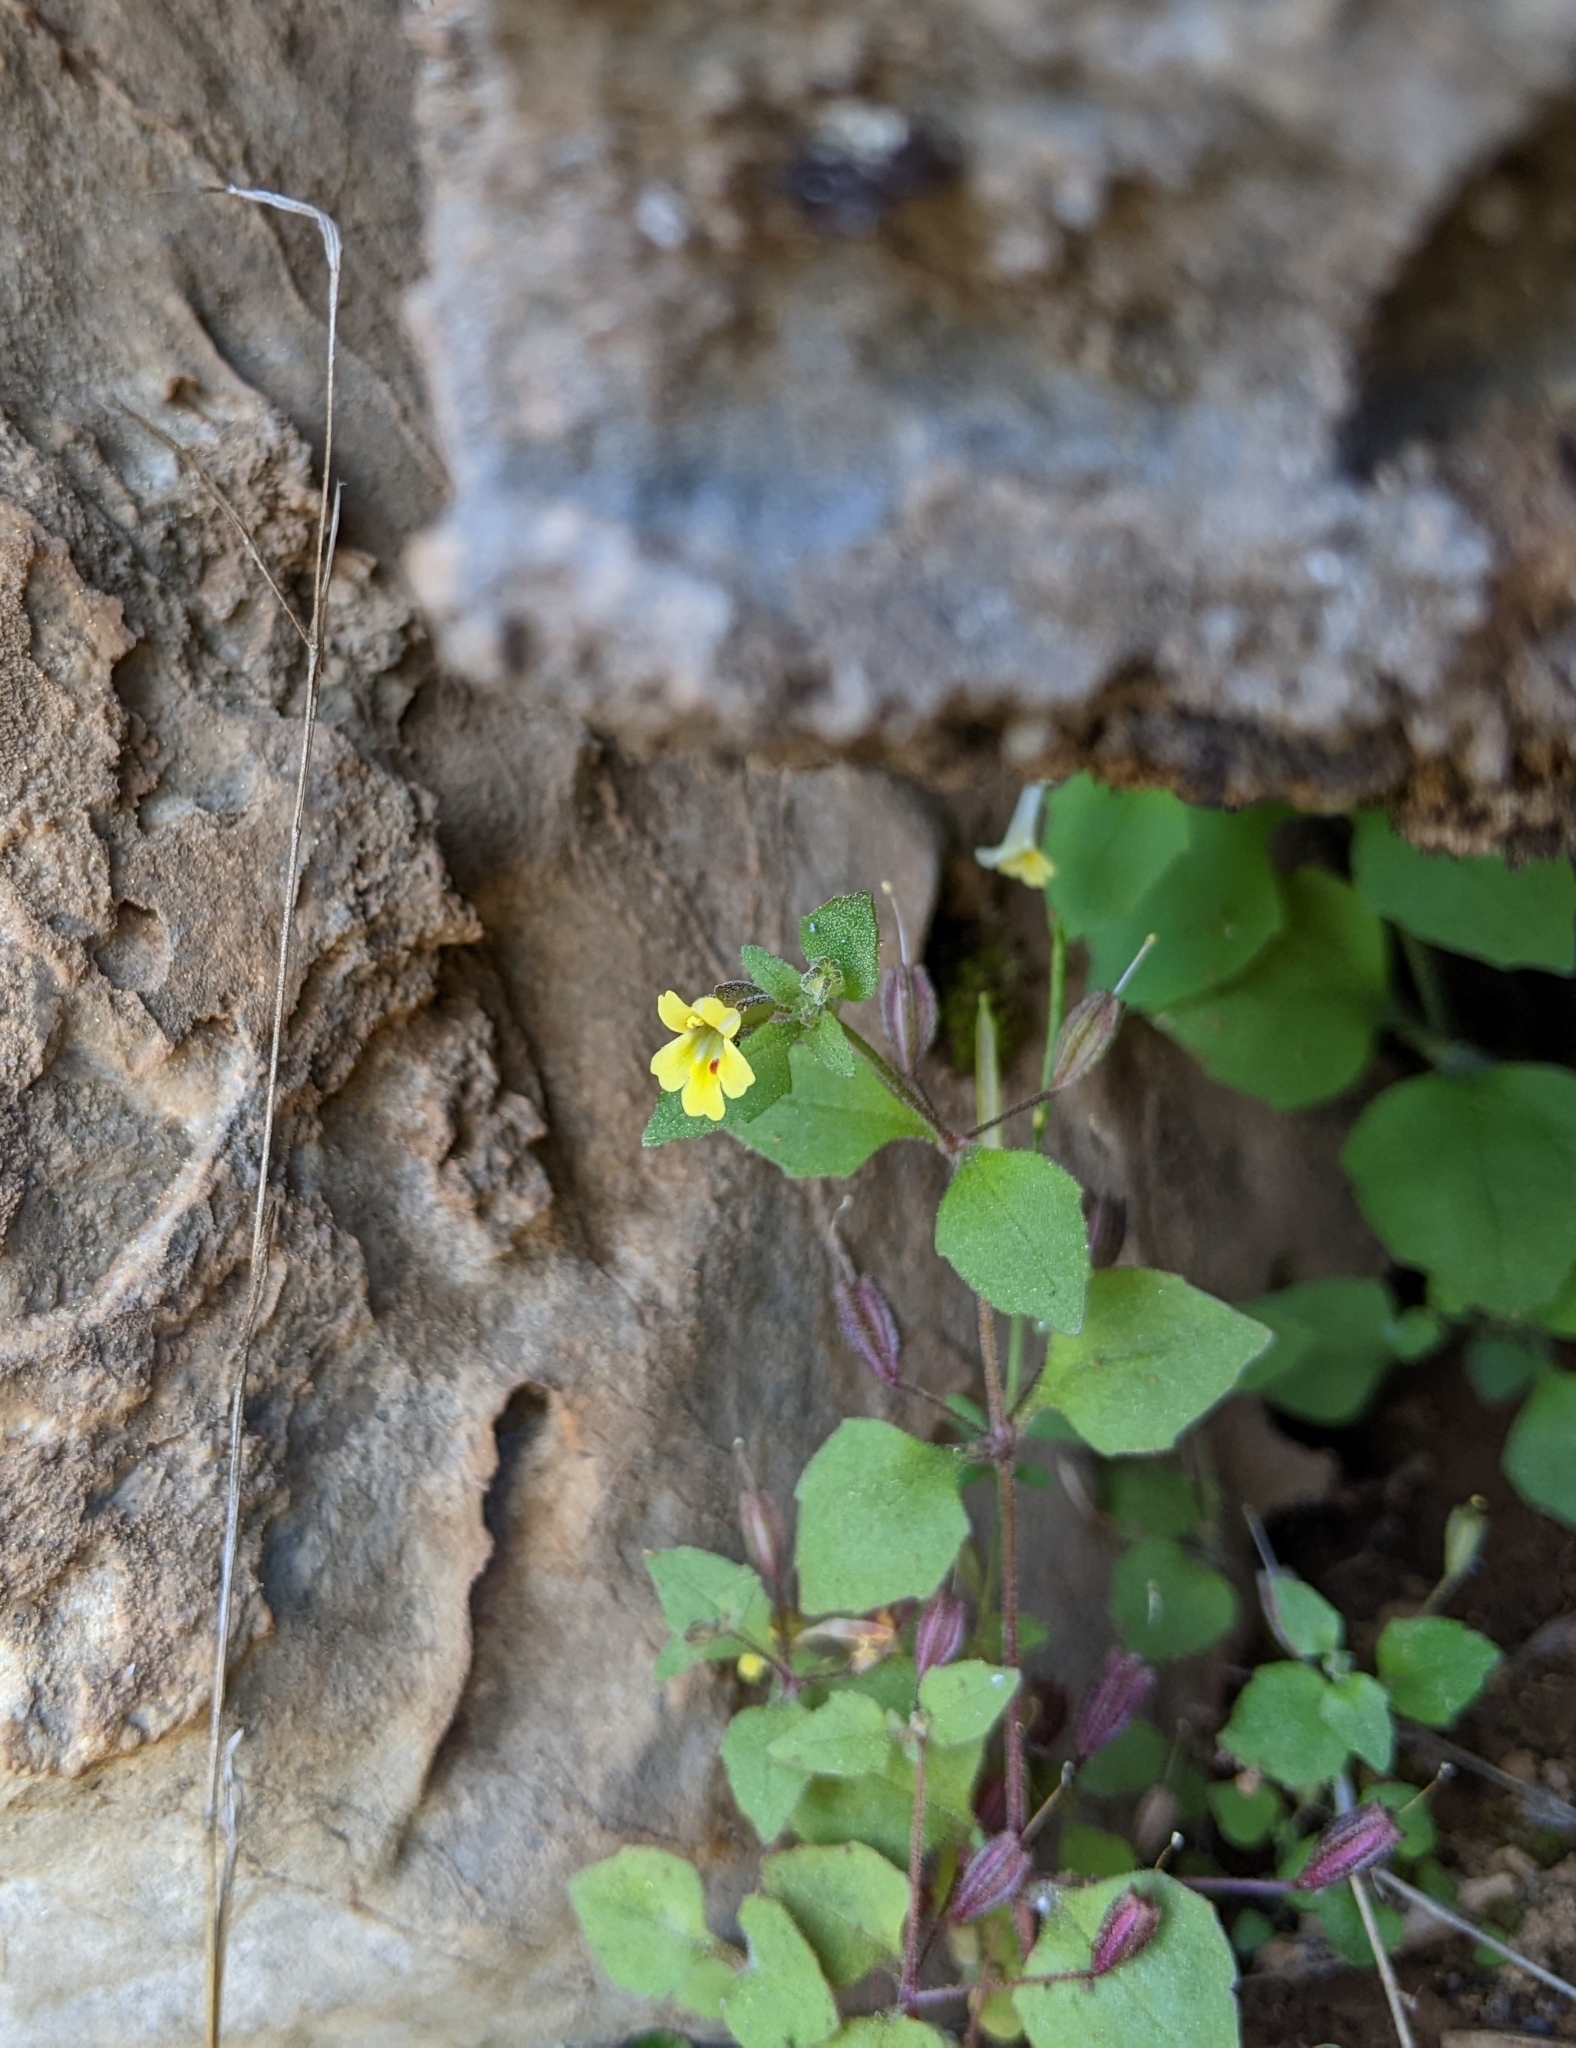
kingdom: Plantae
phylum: Tracheophyta
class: Magnoliopsida
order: Lamiales
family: Phrymaceae
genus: Erythranthe
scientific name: Erythranthe taylorii
